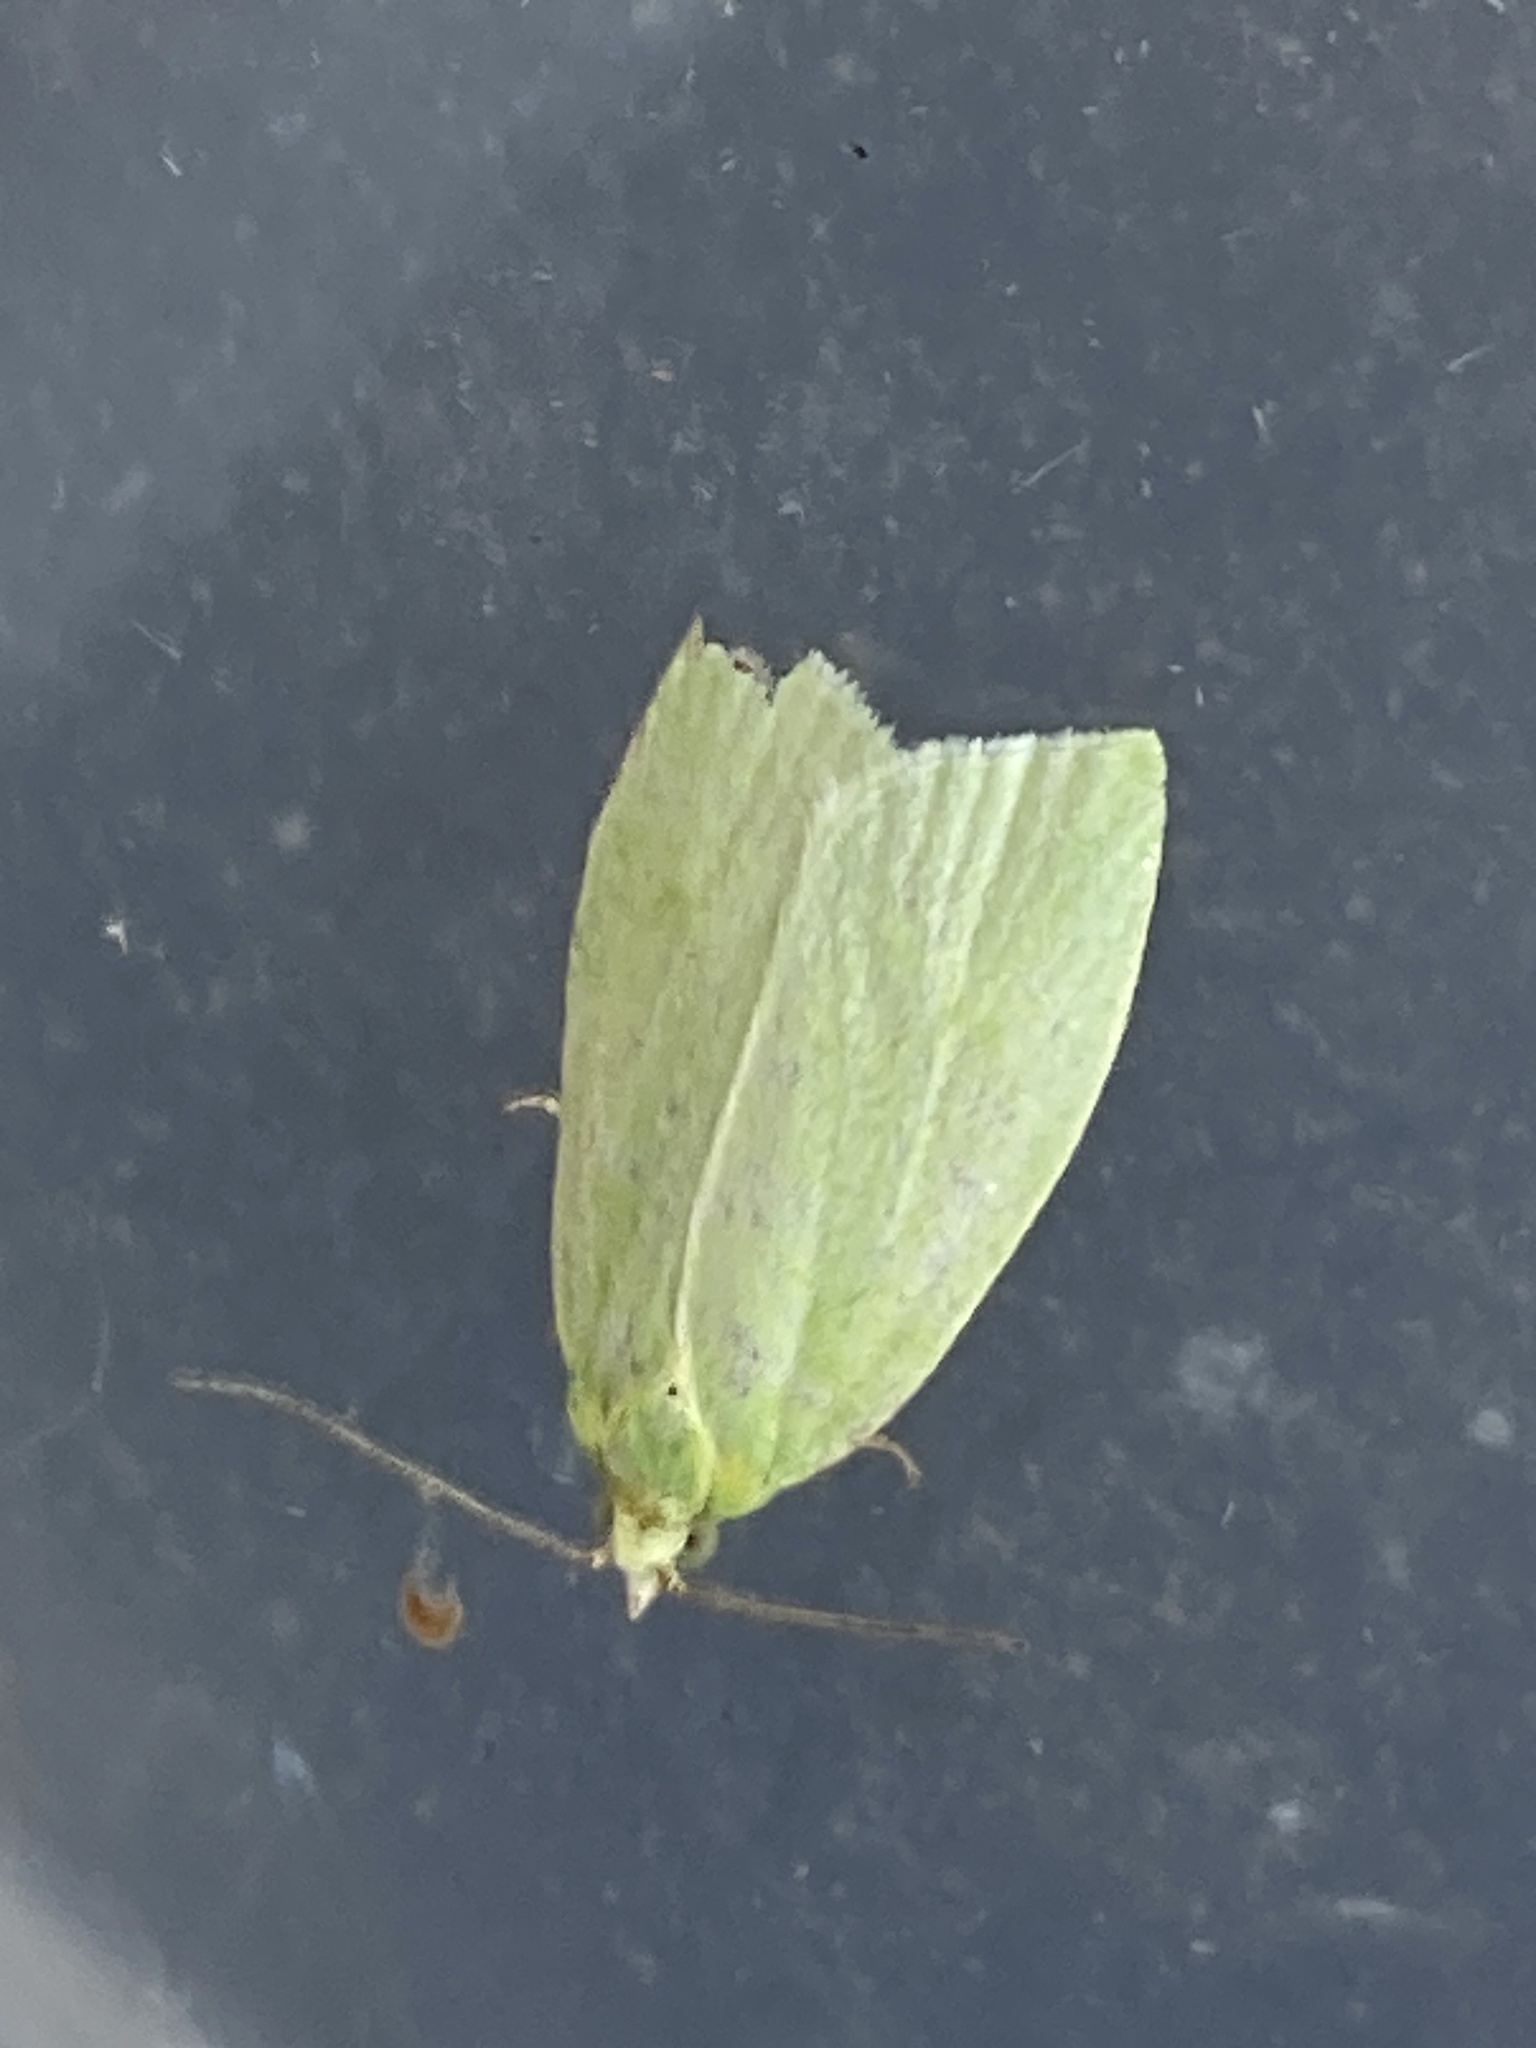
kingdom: Animalia
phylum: Arthropoda
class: Insecta
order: Lepidoptera
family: Tortricidae
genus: Tortrix
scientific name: Tortrix viridana
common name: Green oak tortrix
